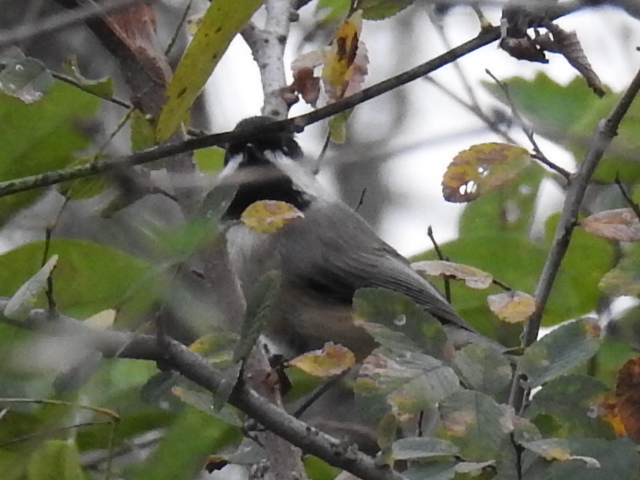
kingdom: Animalia
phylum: Chordata
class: Aves
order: Passeriformes
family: Paridae
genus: Poecile
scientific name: Poecile carolinensis
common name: Carolina chickadee
